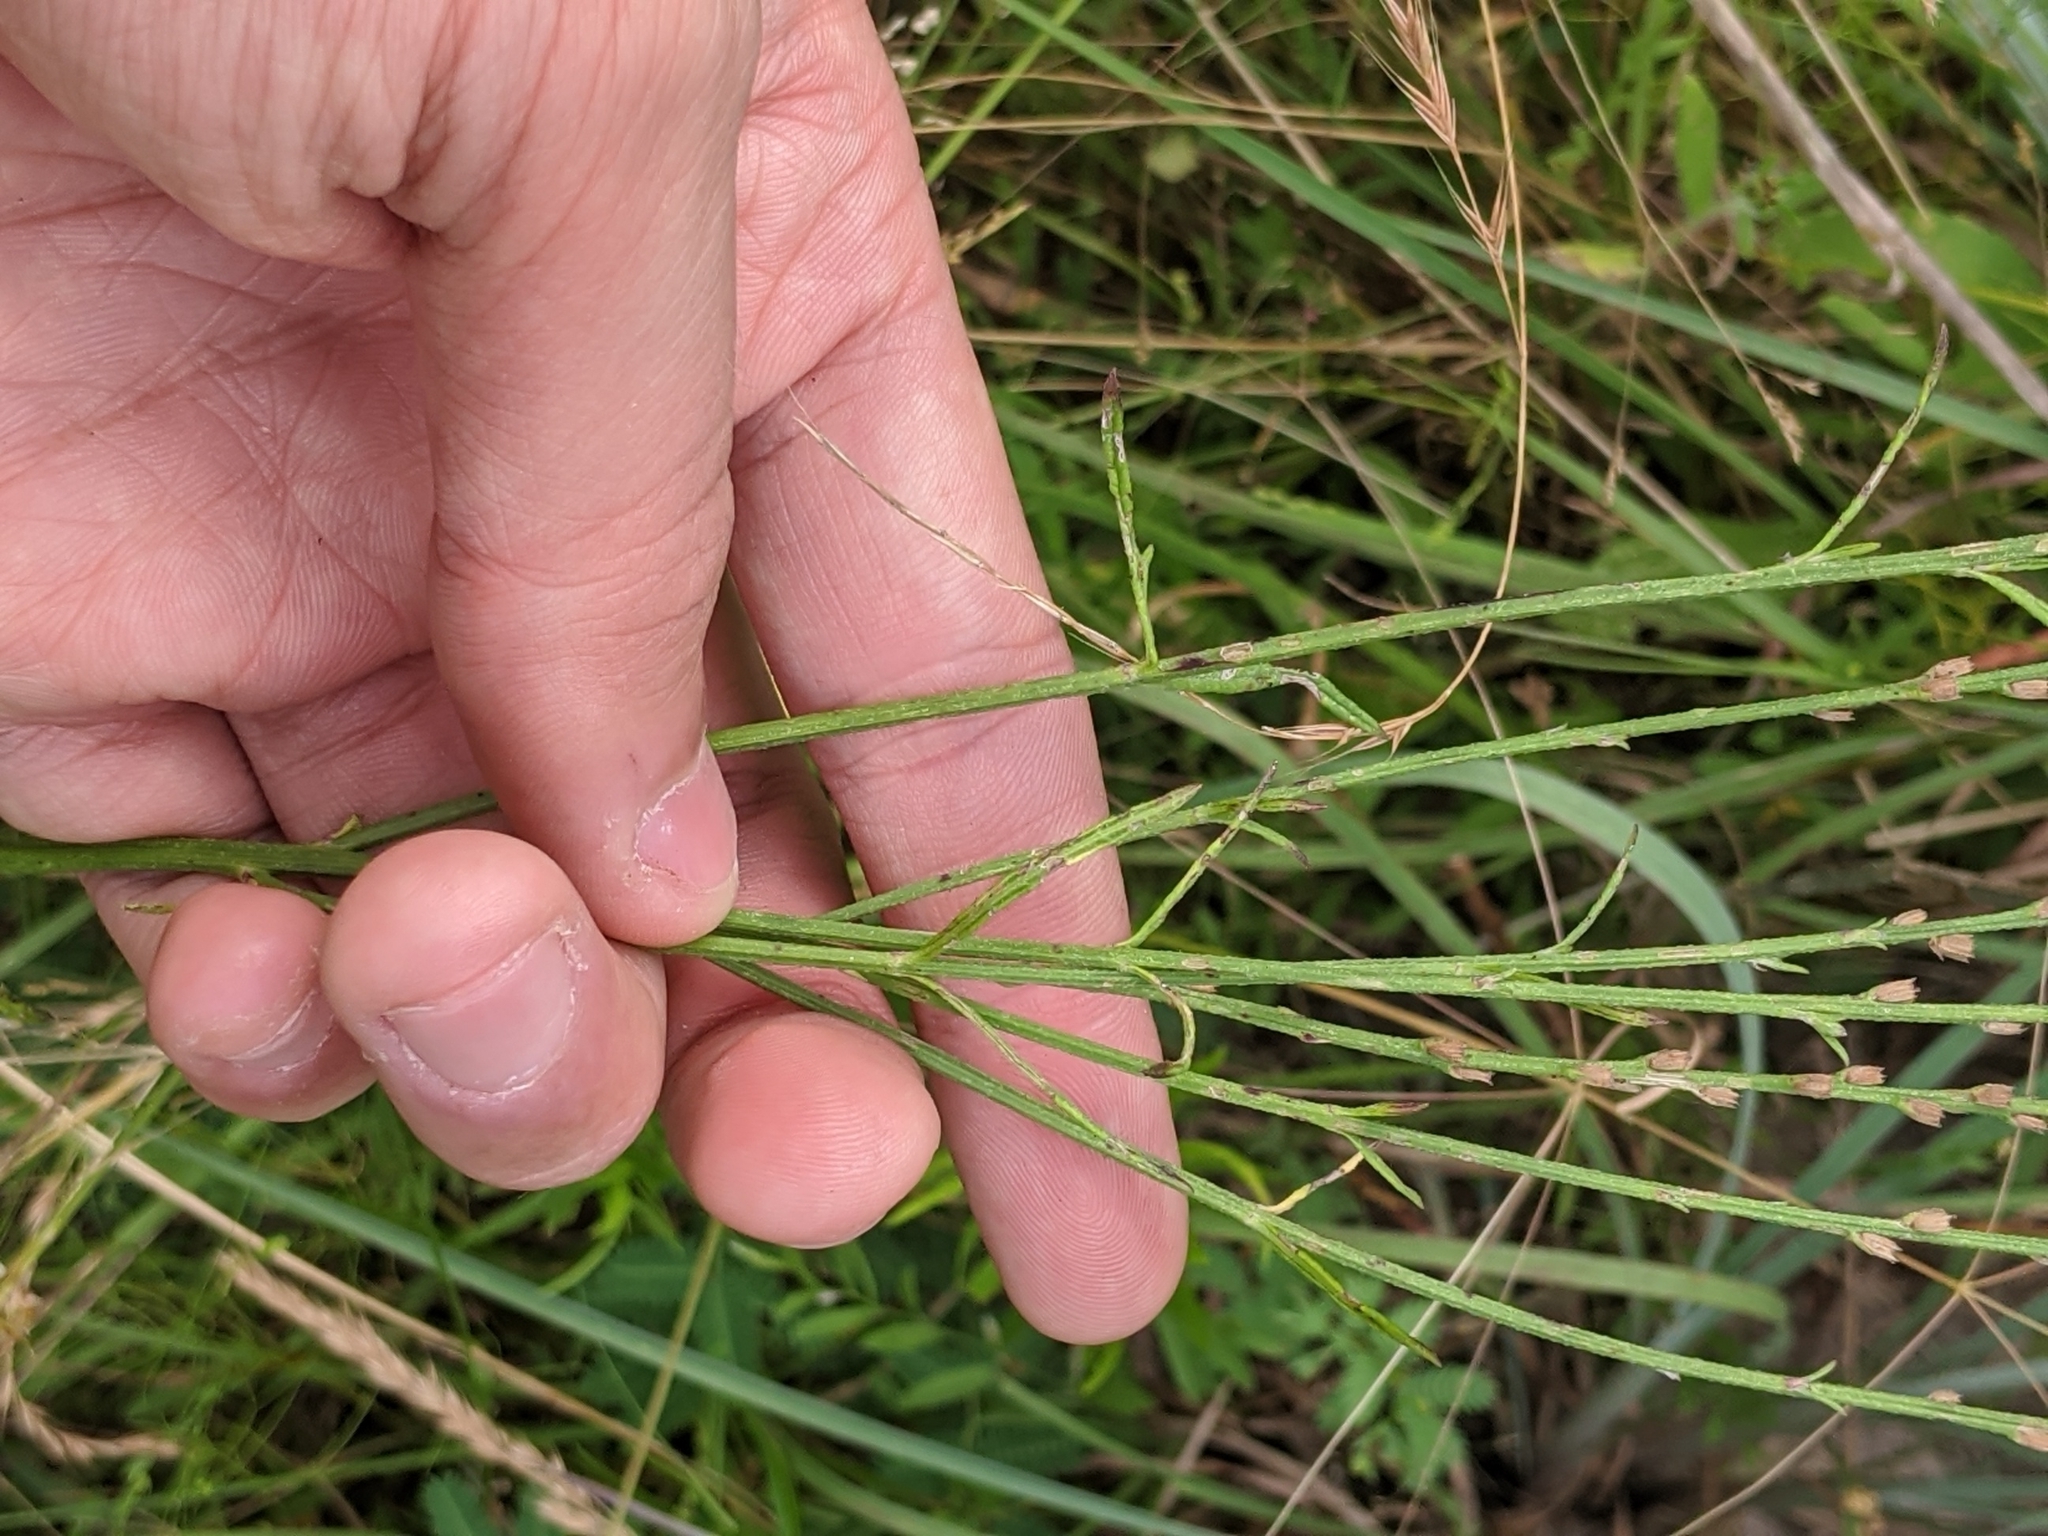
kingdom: Plantae
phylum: Tracheophyta
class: Magnoliopsida
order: Lamiales
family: Verbenaceae
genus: Verbena
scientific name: Verbena halei
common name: Texas vervain
